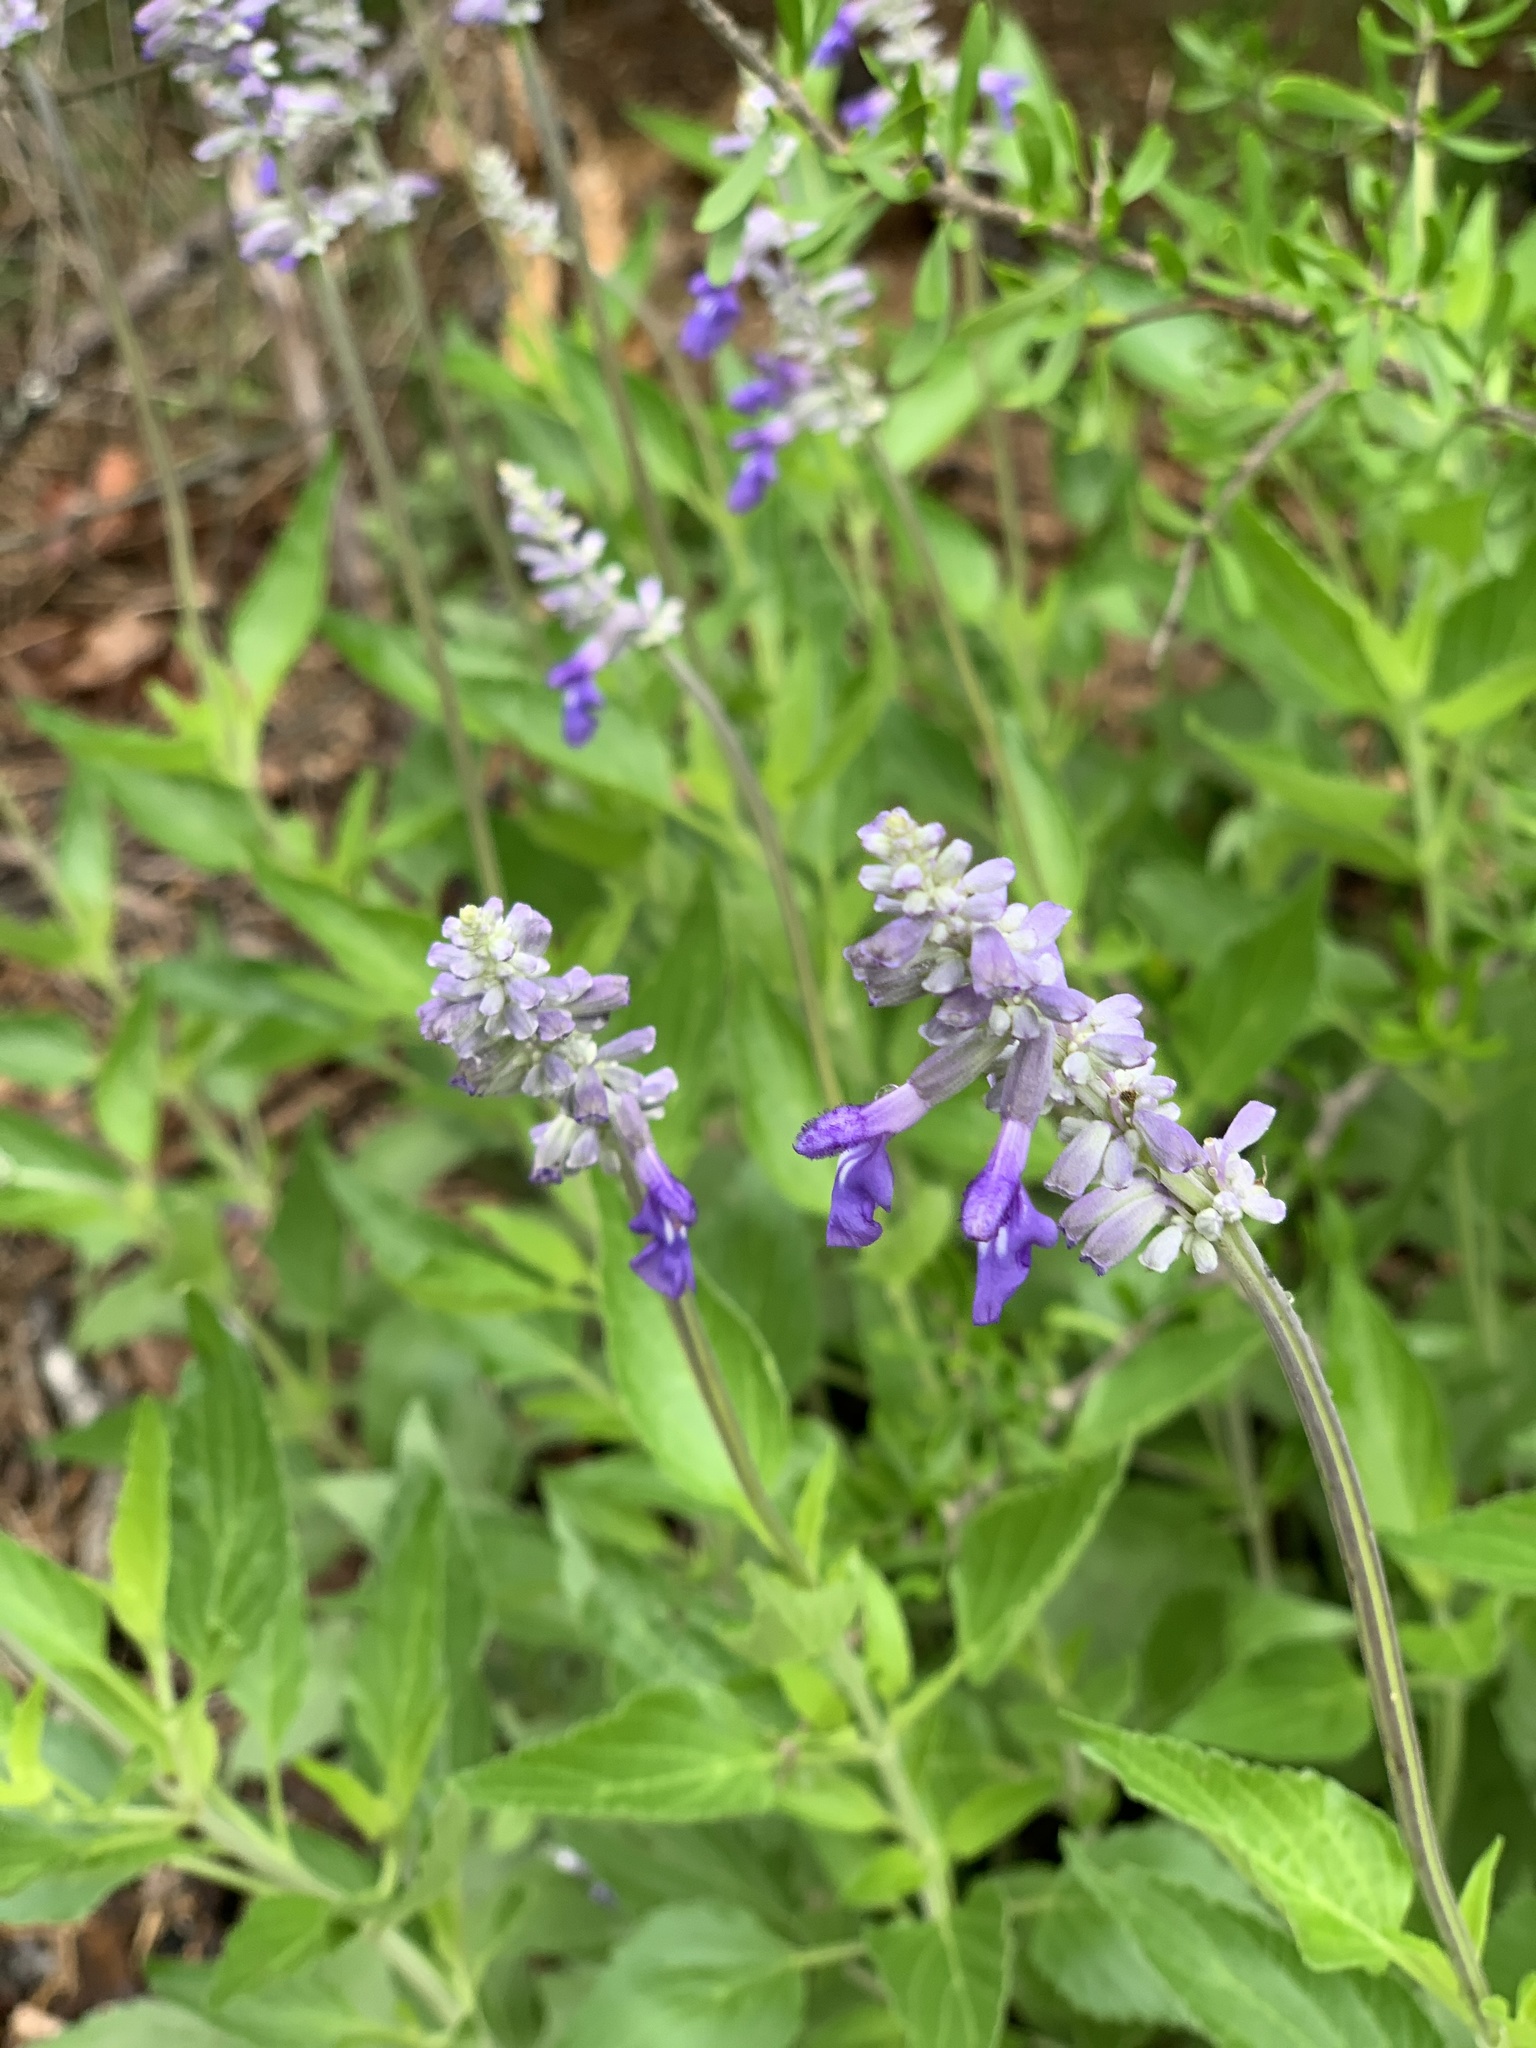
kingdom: Plantae
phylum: Tracheophyta
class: Magnoliopsida
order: Lamiales
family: Lamiaceae
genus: Salvia
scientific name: Salvia farinacea
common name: Mealy sage
